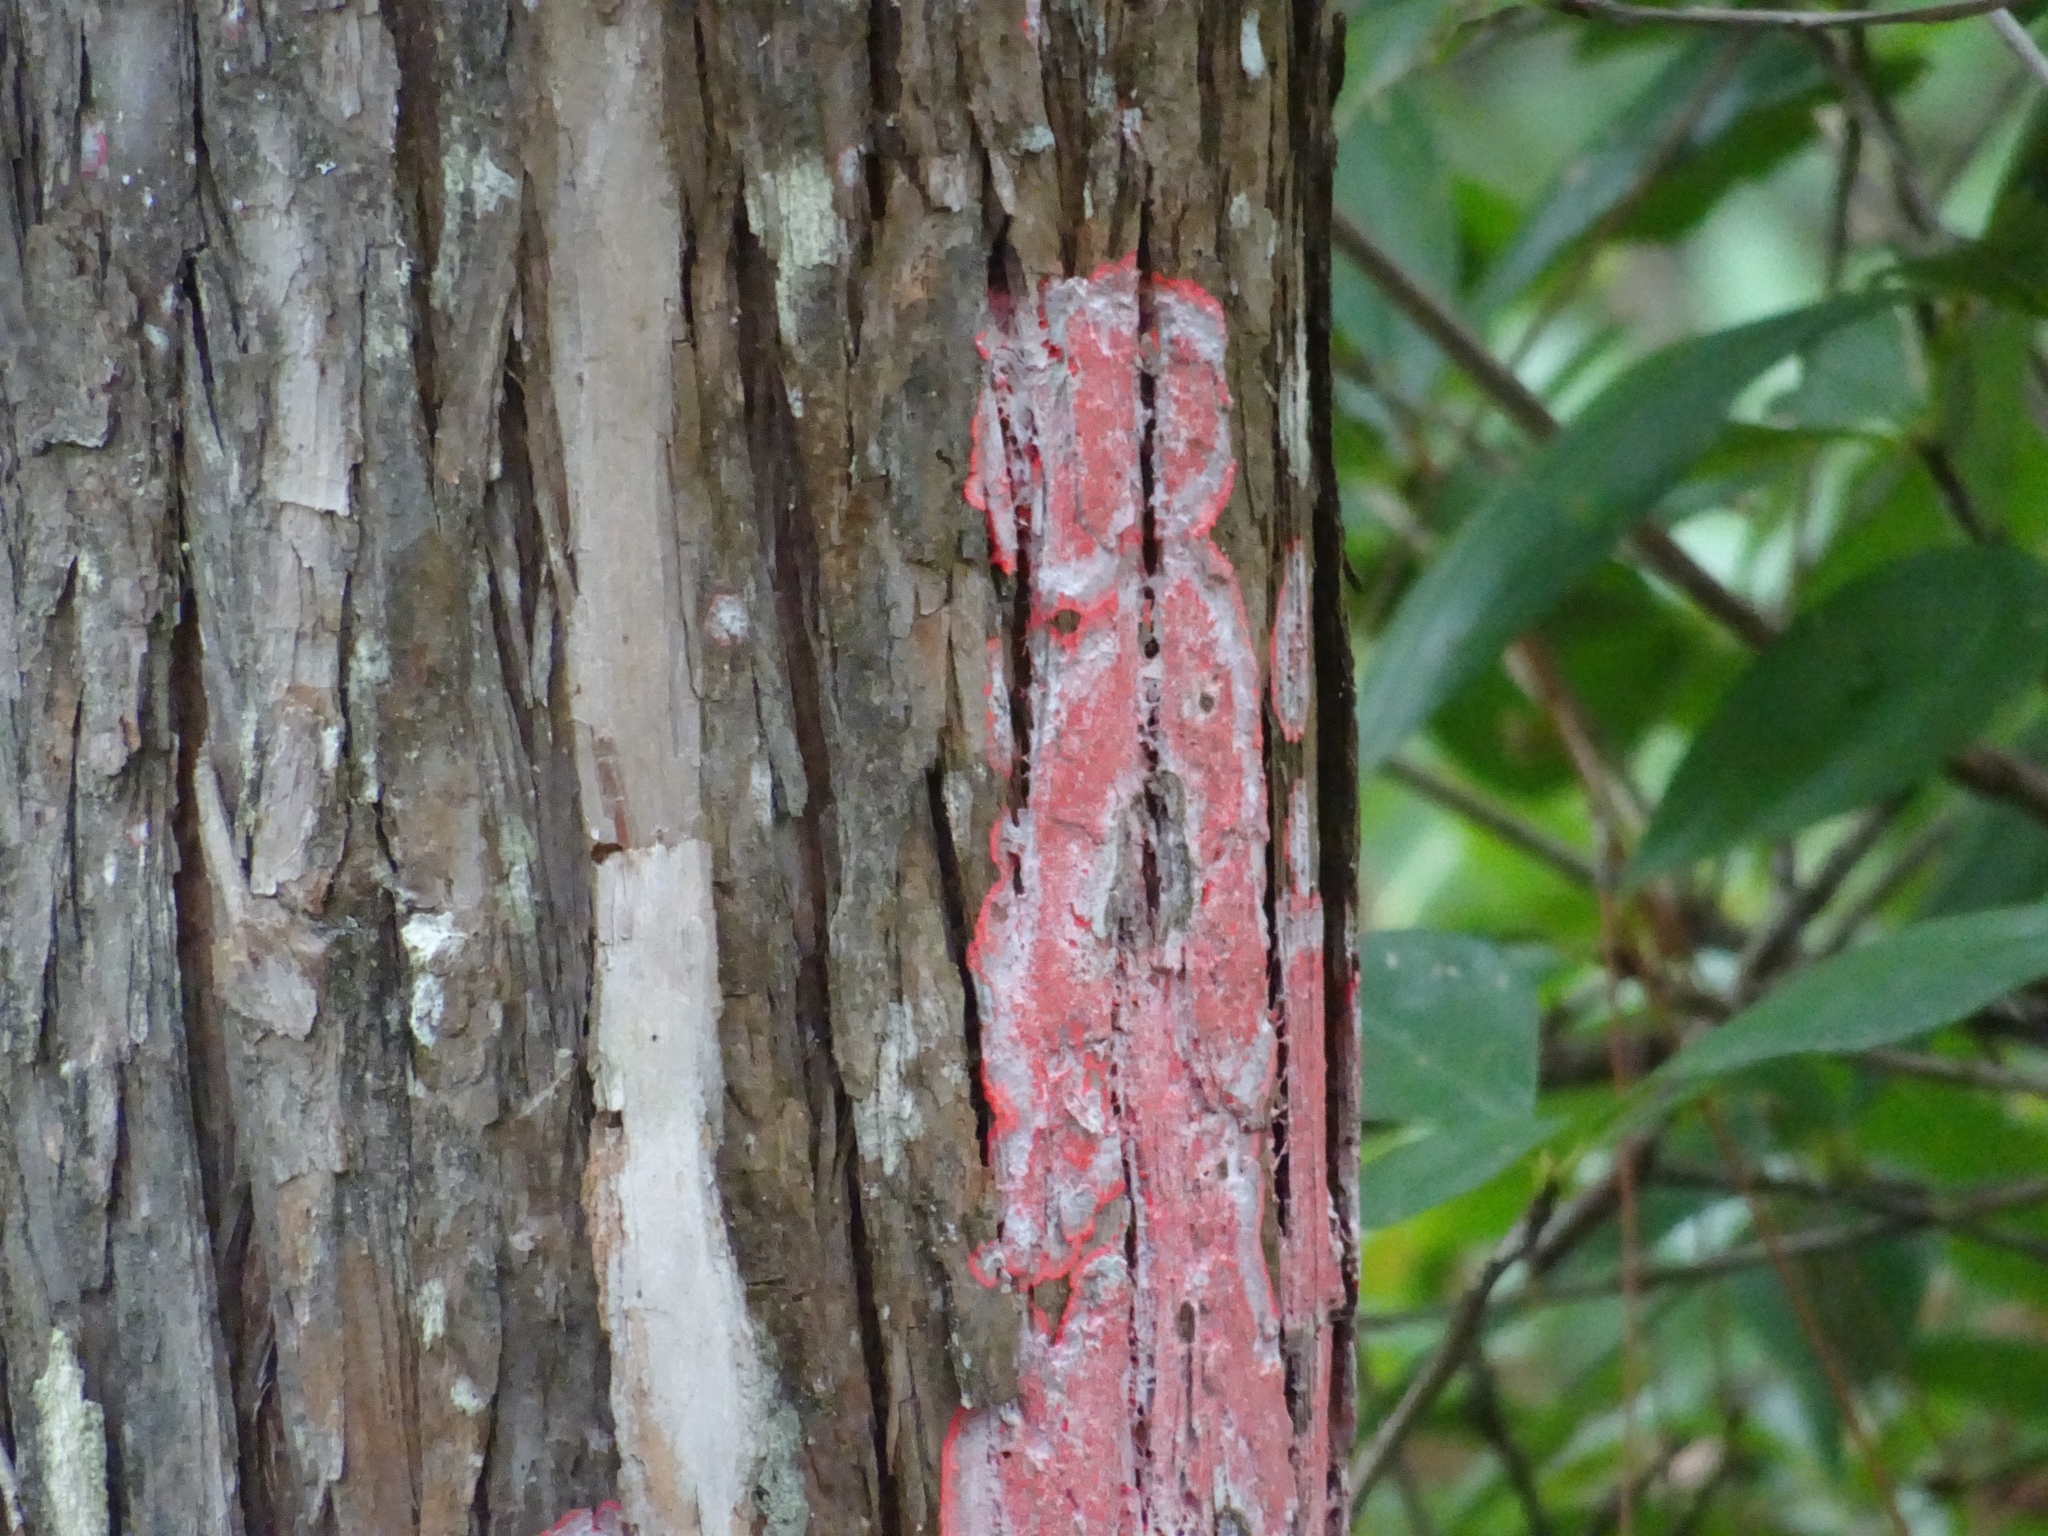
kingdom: Fungi
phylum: Ascomycota
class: Arthoniomycetes
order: Arthoniales
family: Arthoniaceae
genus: Herpothallon
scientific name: Herpothallon rubrocinctum
